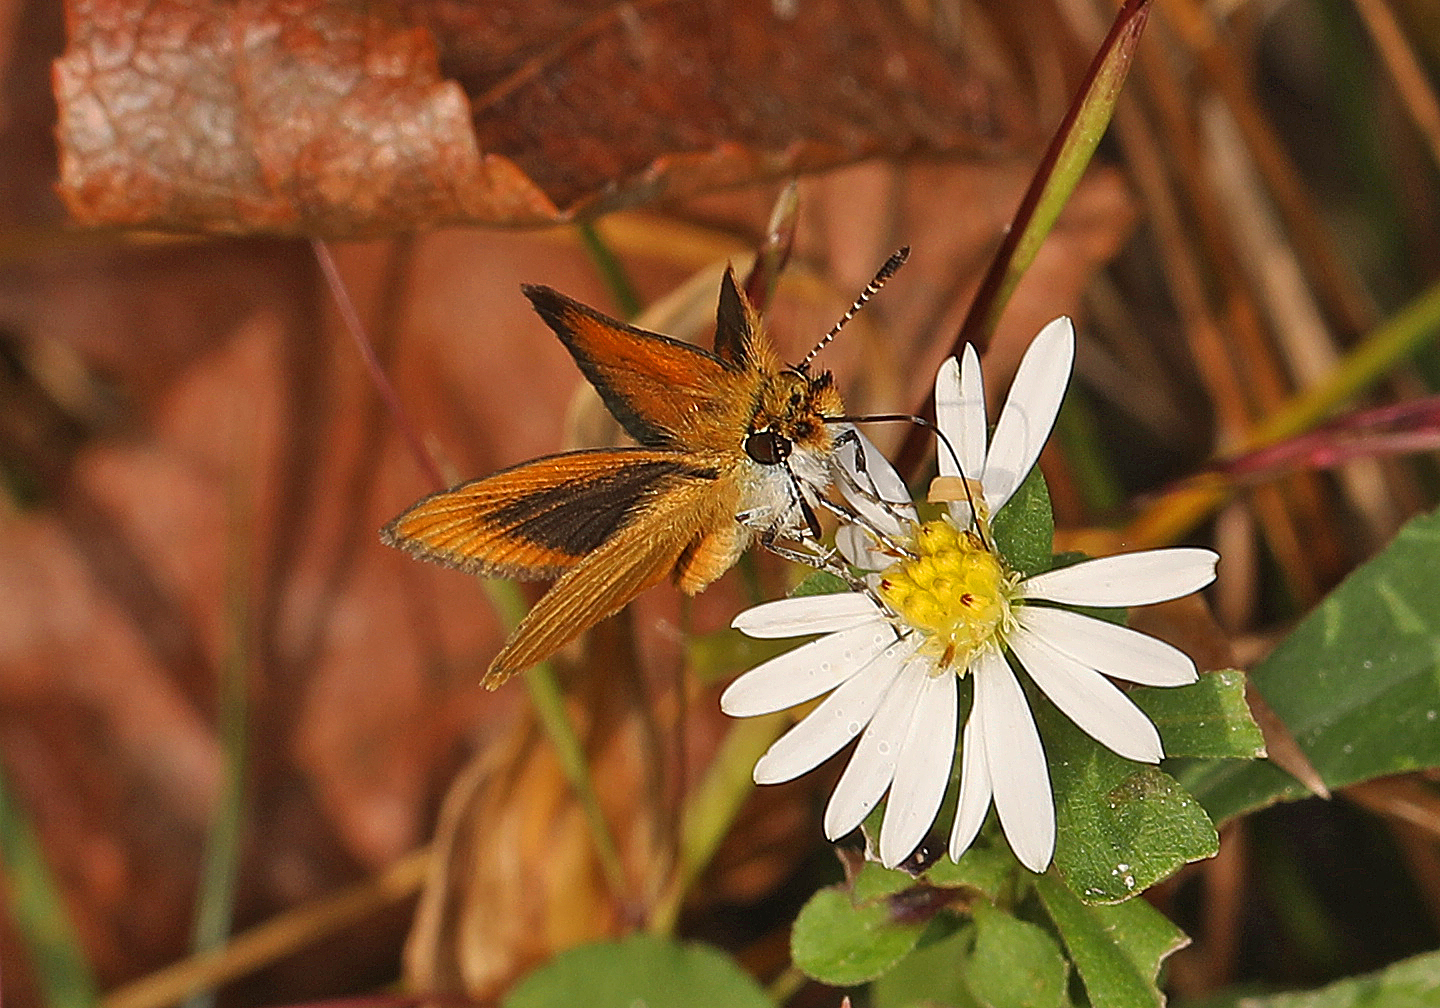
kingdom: Animalia
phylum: Arthropoda
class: Insecta
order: Lepidoptera
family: Hesperiidae
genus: Ancyloxypha
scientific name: Ancyloxypha numitor
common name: Least skipper
